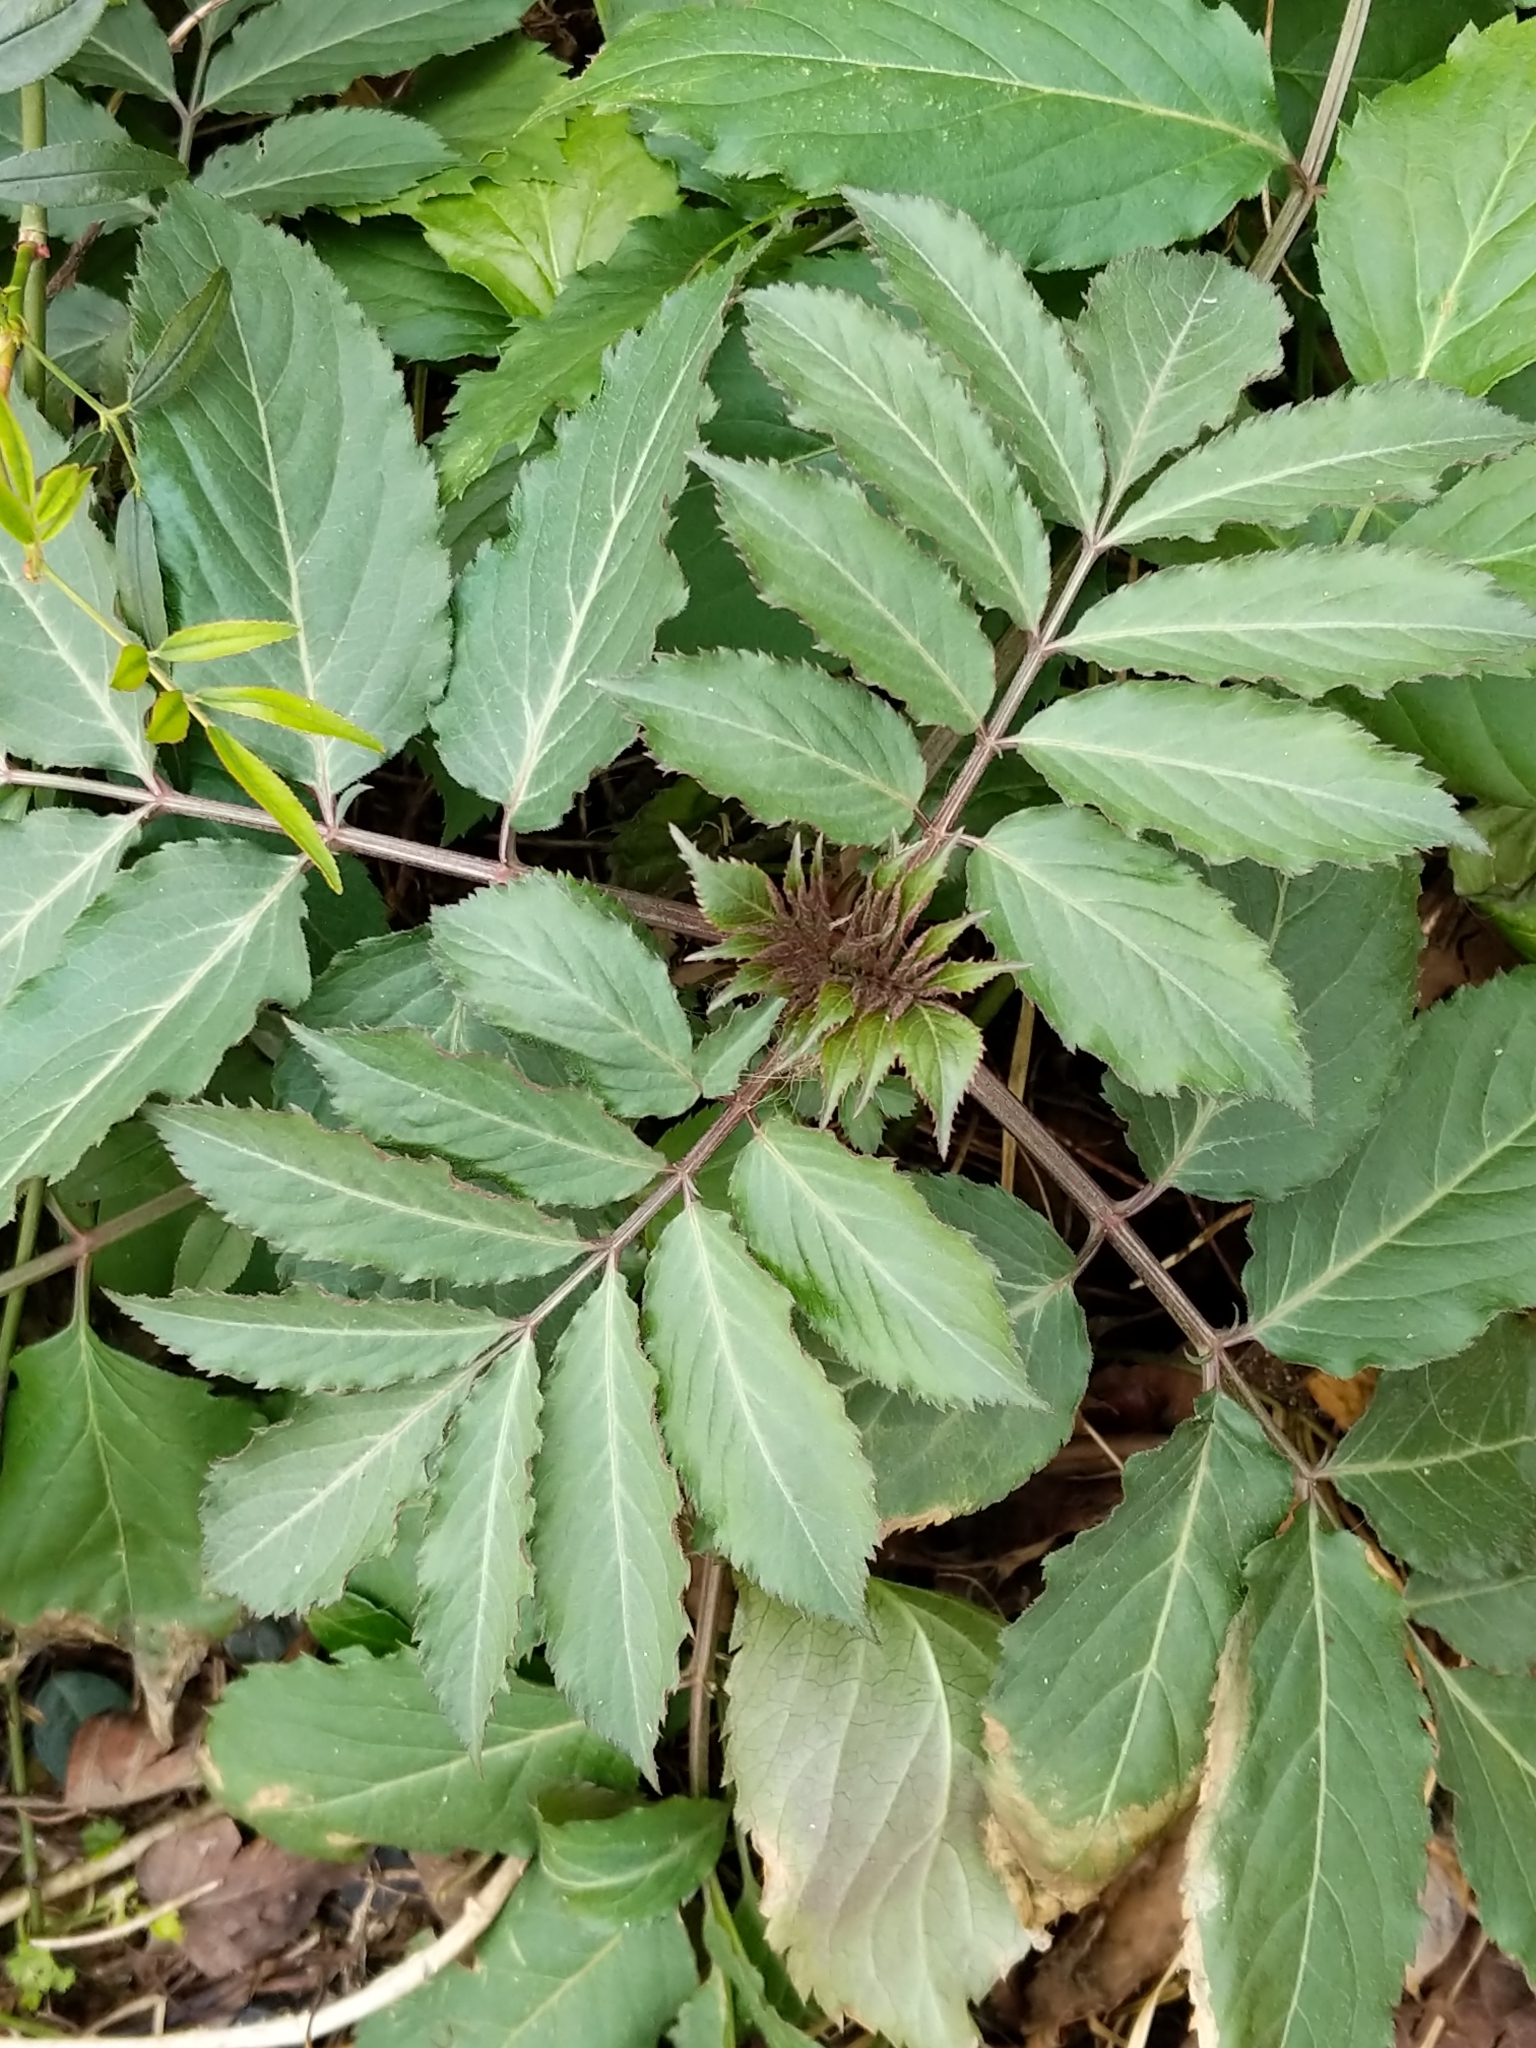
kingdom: Plantae
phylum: Tracheophyta
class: Magnoliopsida
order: Dipsacales
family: Viburnaceae
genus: Sambucus
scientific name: Sambucus canadensis
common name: American elder
